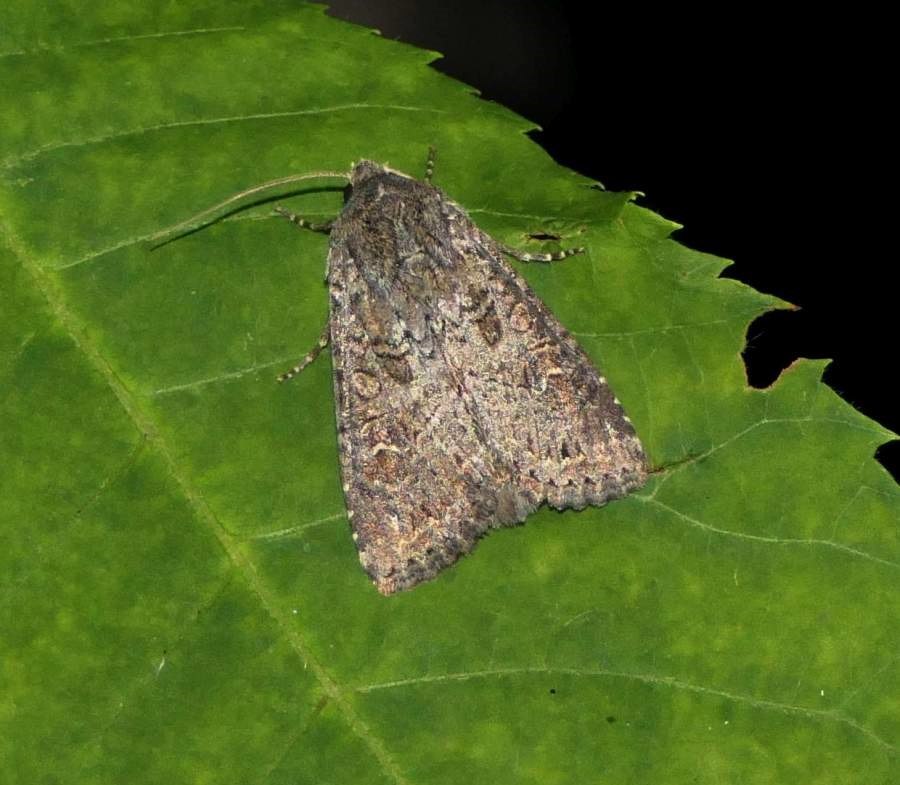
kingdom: Animalia
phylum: Arthropoda
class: Insecta
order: Lepidoptera
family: Noctuidae
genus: Apamea
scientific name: Apamea devastator
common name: Glassy cutworm
